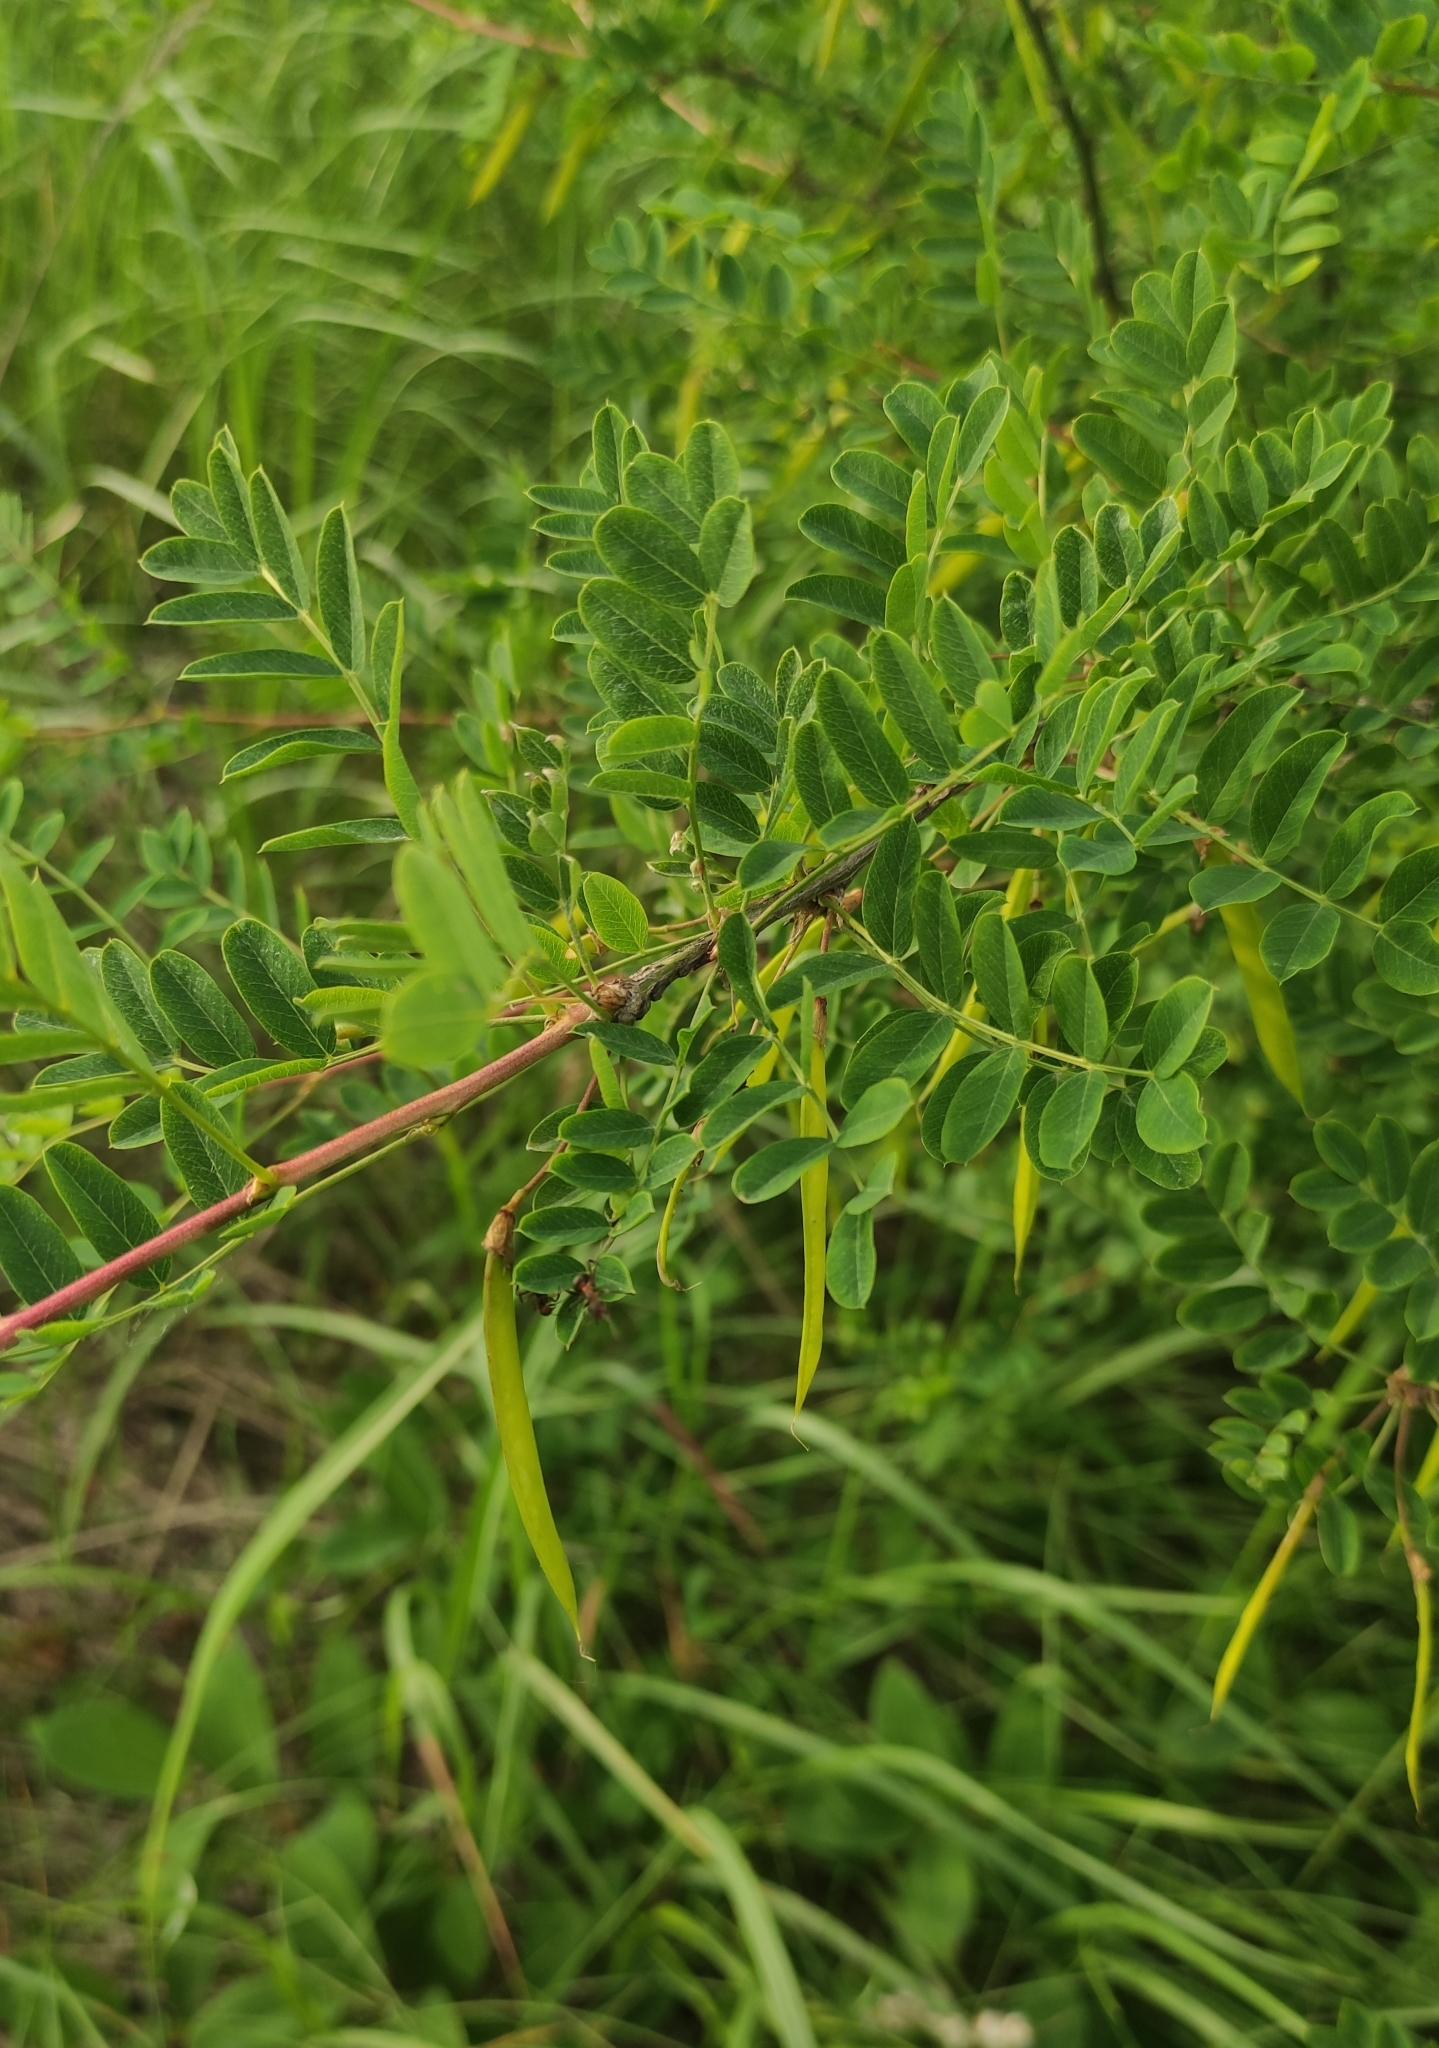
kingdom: Plantae
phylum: Tracheophyta
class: Magnoliopsida
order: Fabales
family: Fabaceae
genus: Caragana
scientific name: Caragana arborescens
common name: Siberian peashrub
